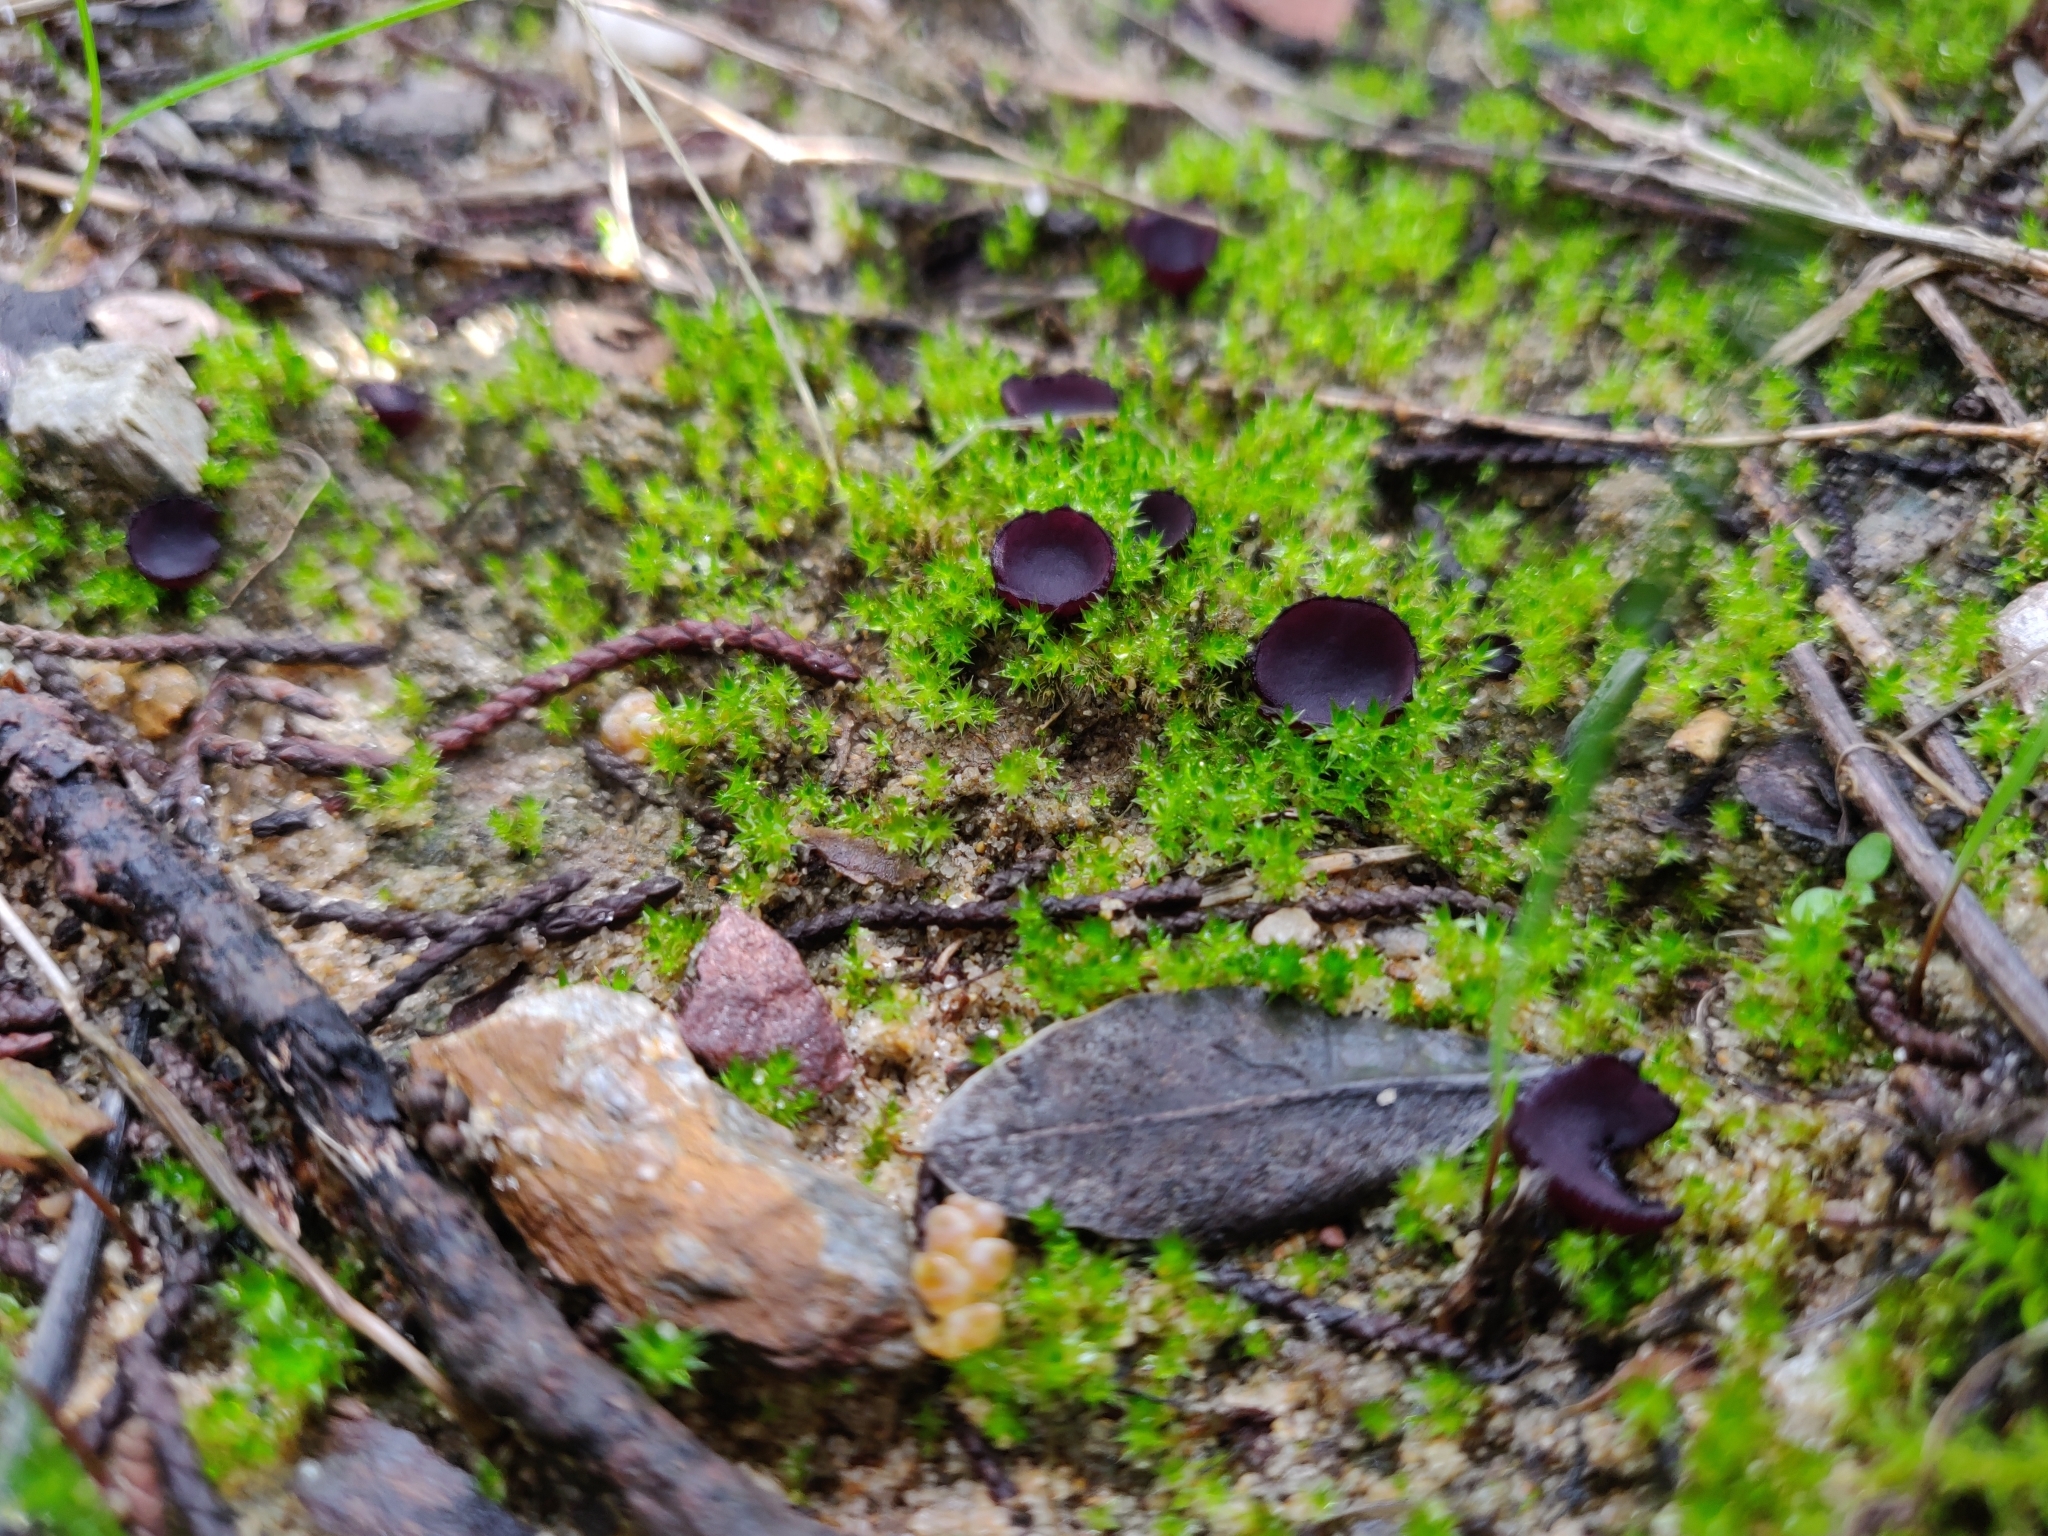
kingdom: Fungi
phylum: Ascomycota
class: Pezizomycetes
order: Pezizales
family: Pezizaceae
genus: Marcelleina
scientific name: Marcelleina atroviolacea
